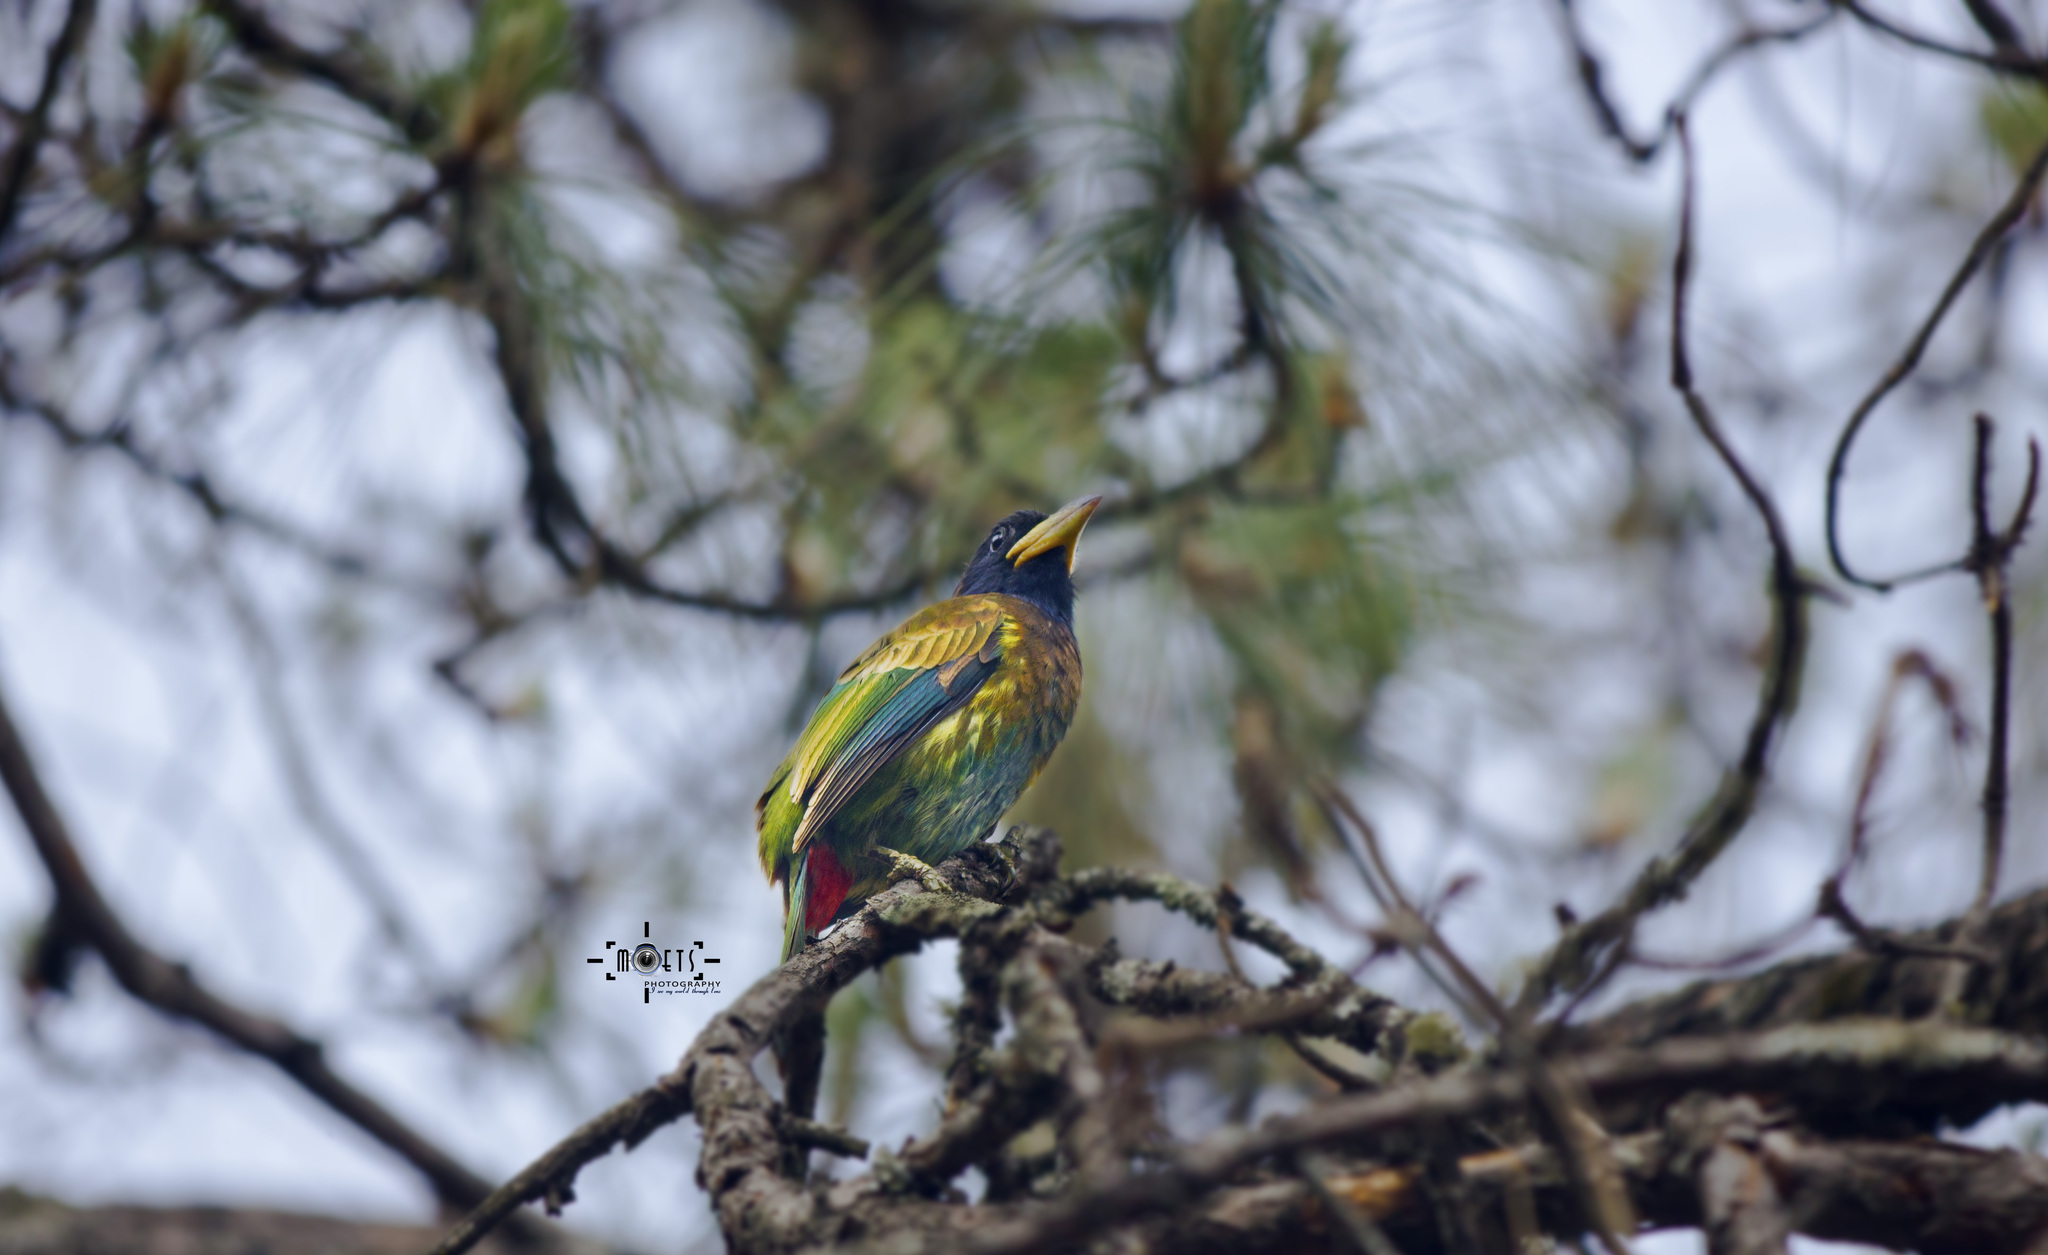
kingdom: Animalia
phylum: Chordata
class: Aves
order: Piciformes
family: Megalaimidae
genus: Psilopogon
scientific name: Psilopogon virens
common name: Great barbet
